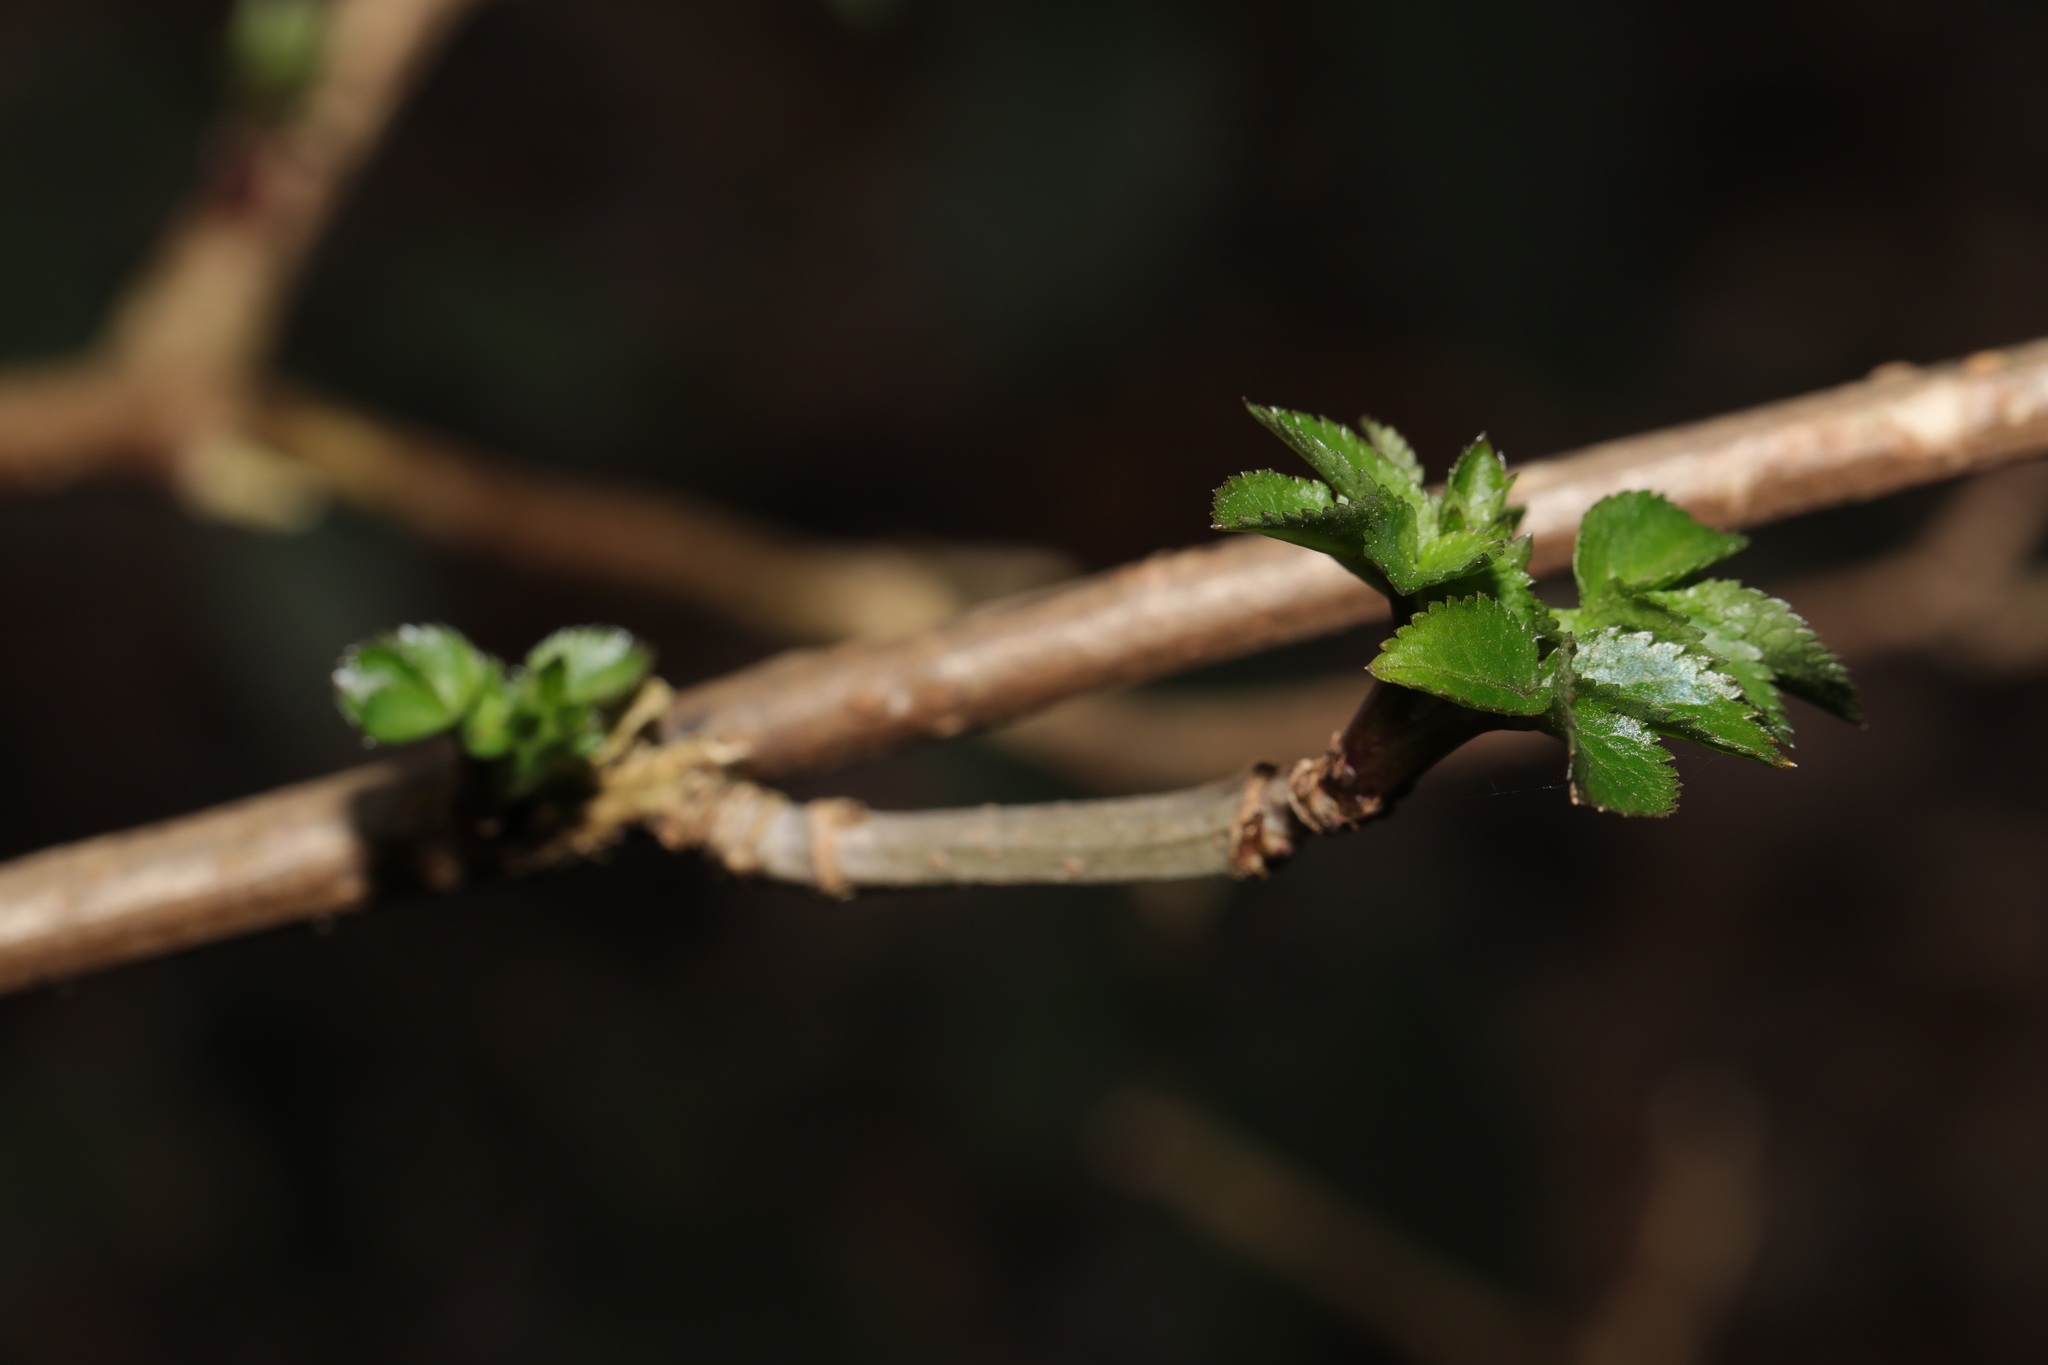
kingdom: Plantae
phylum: Tracheophyta
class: Magnoliopsida
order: Dipsacales
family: Viburnaceae
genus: Sambucus
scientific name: Sambucus nigra
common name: Elder
